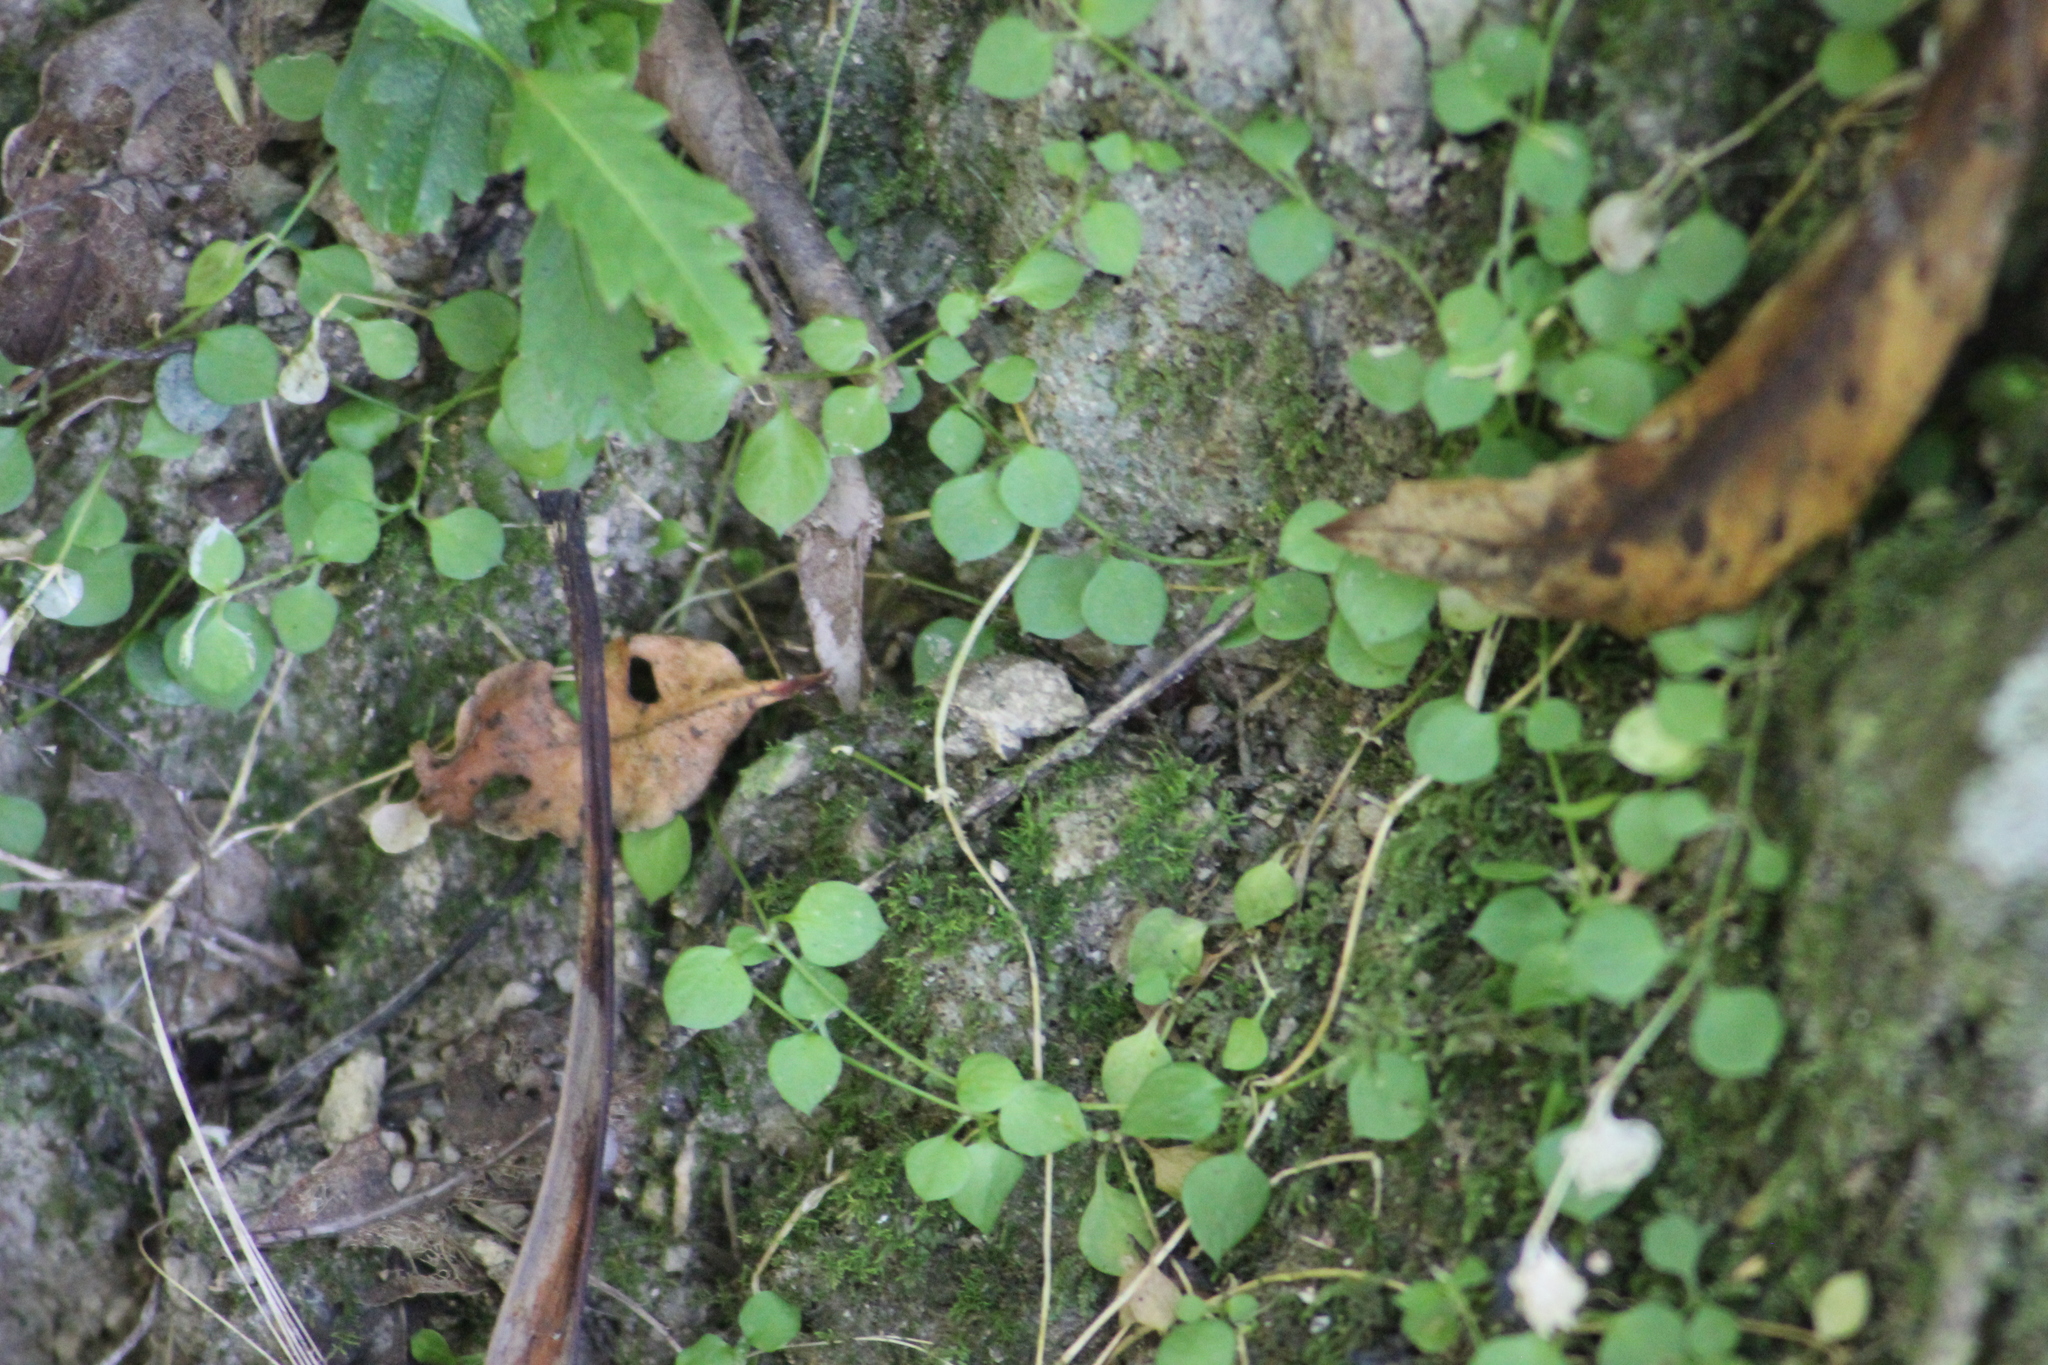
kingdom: Plantae
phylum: Tracheophyta
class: Magnoliopsida
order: Caryophyllales
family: Caryophyllaceae
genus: Stellaria
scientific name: Stellaria parviflora
